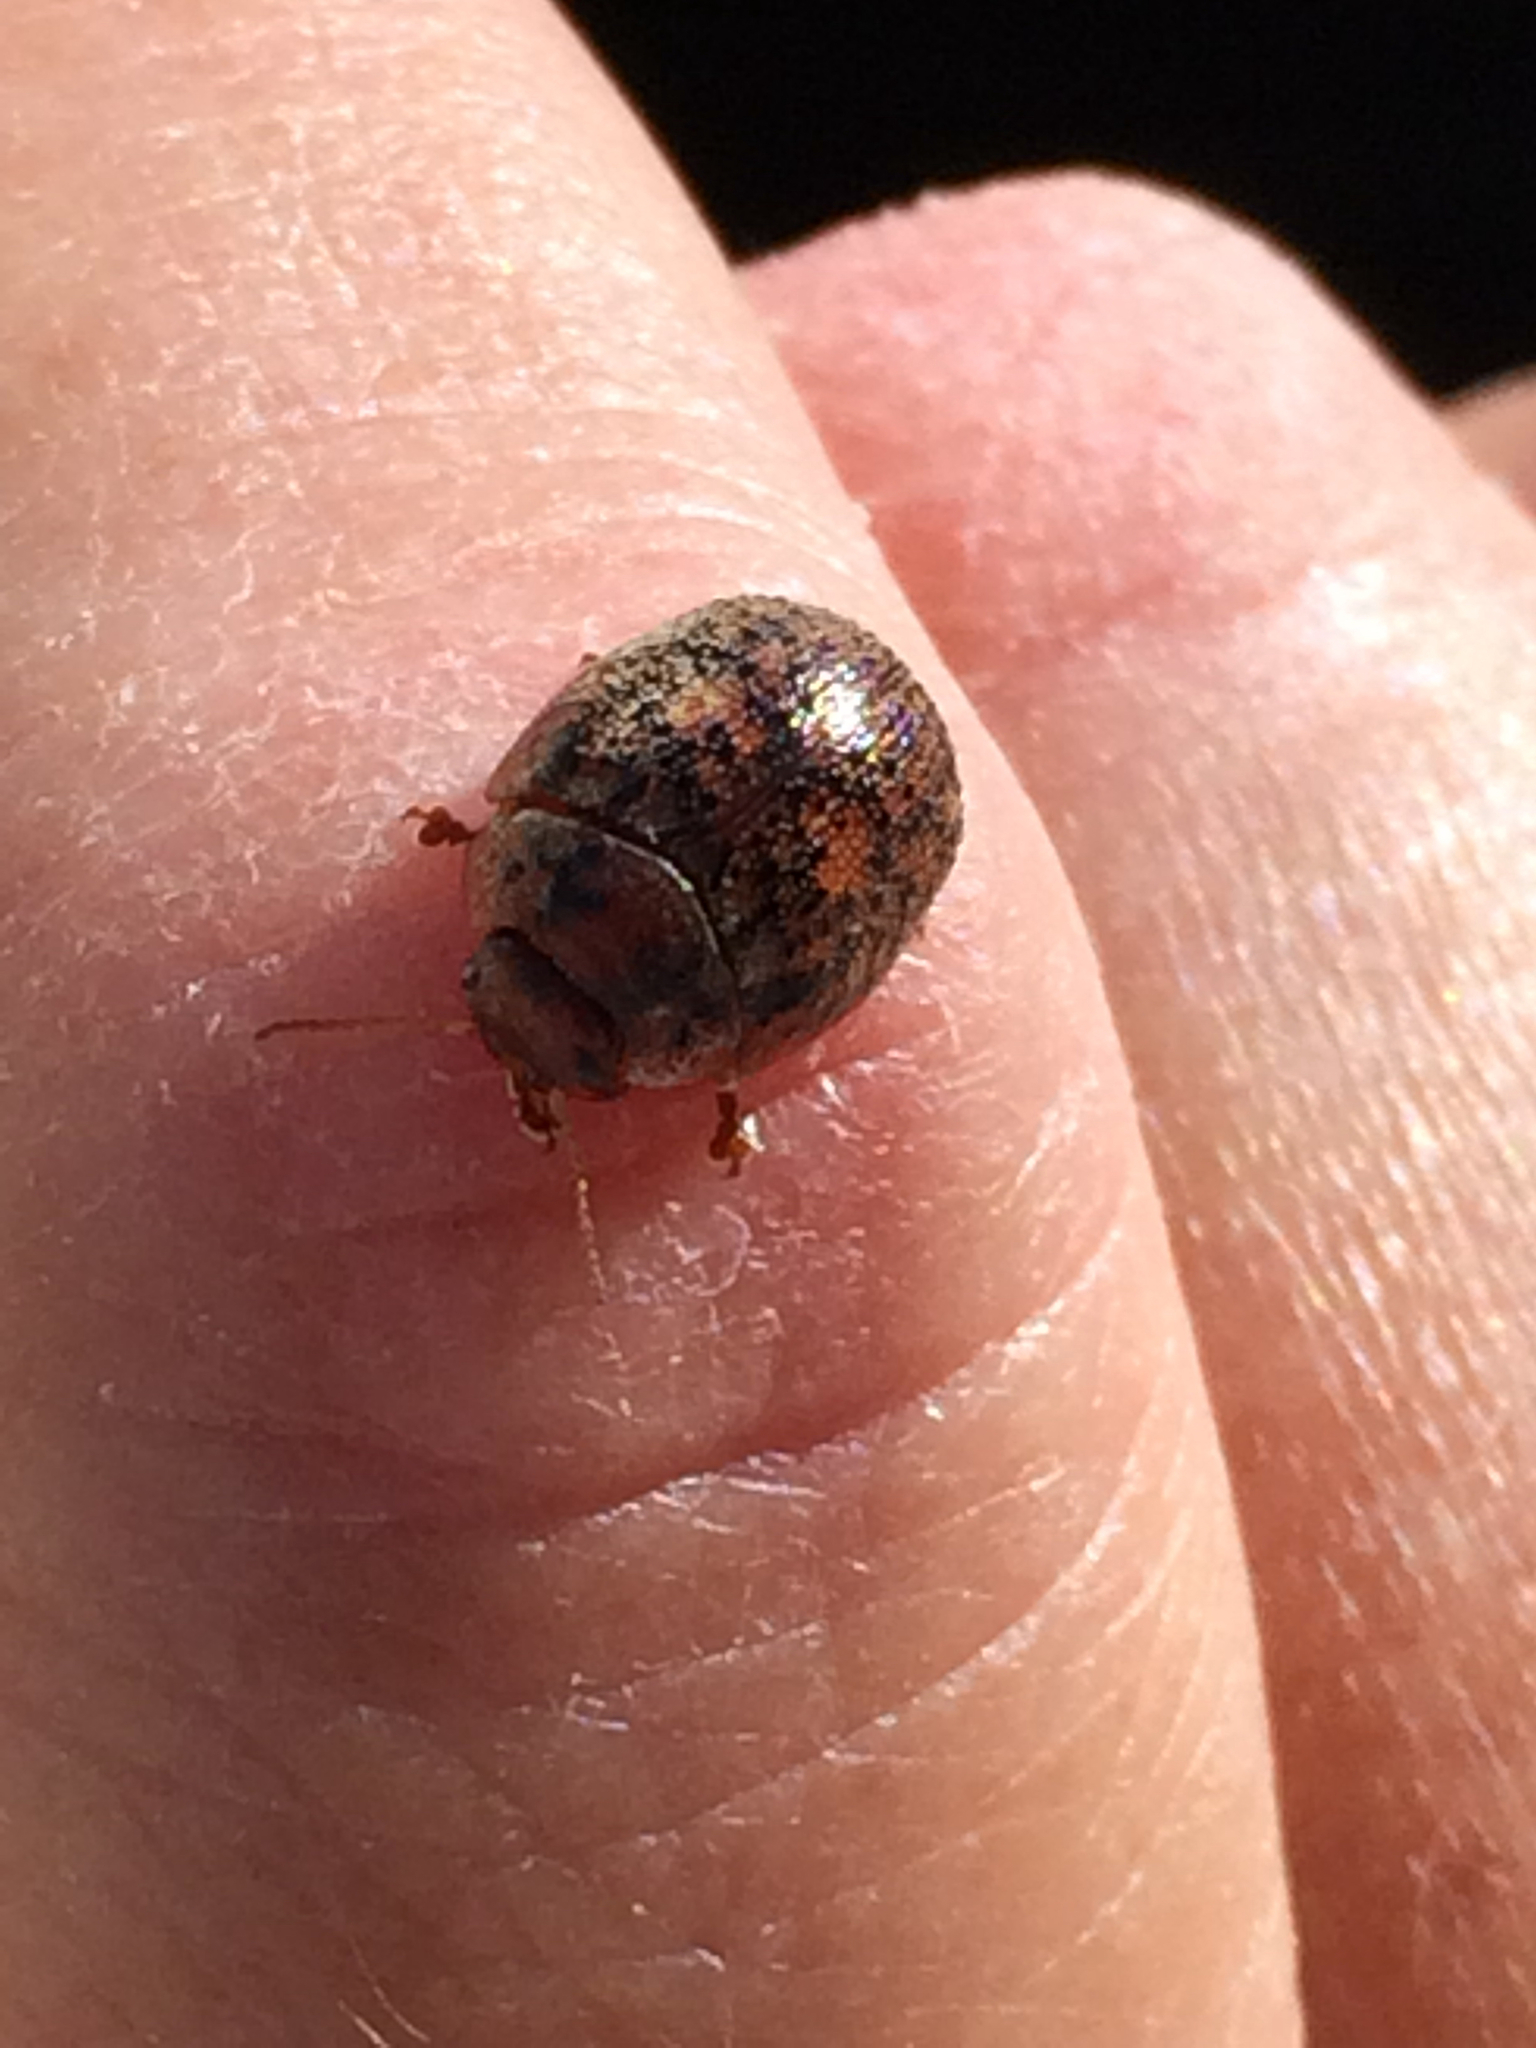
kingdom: Animalia
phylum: Arthropoda
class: Insecta
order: Coleoptera
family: Chrysomelidae
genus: Trachymela
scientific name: Trachymela sloanei
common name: Australian tortoise beetle
